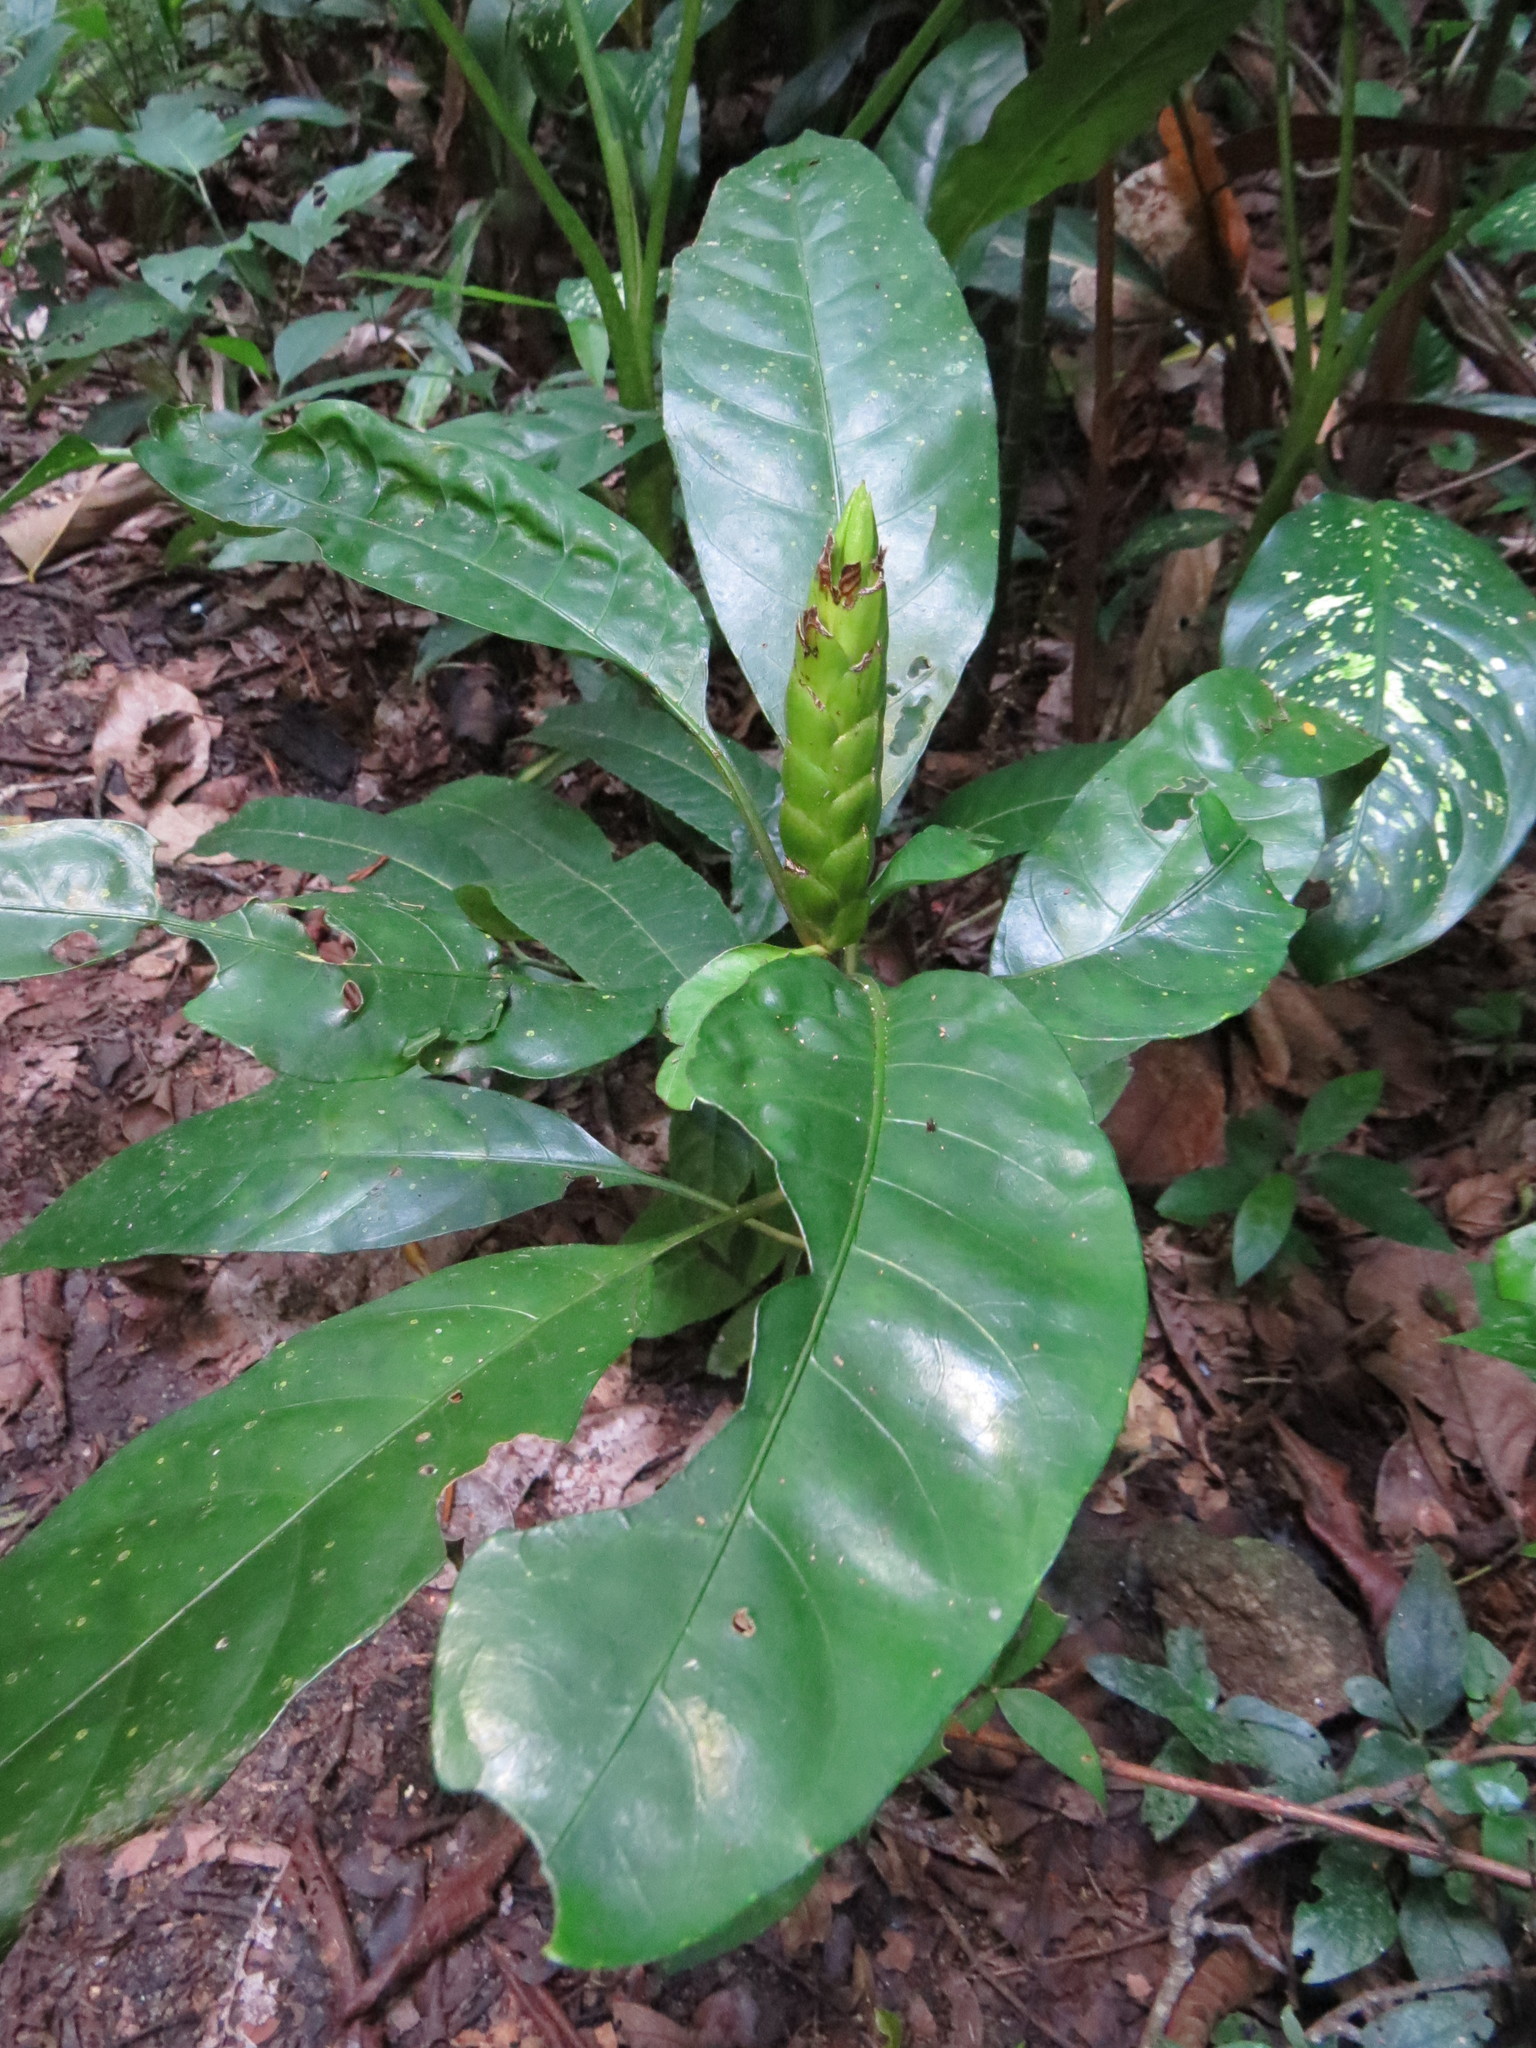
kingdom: Plantae
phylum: Tracheophyta
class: Magnoliopsida
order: Lamiales
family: Acanthaceae
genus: Aphelandra
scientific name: Aphelandra prismatica
